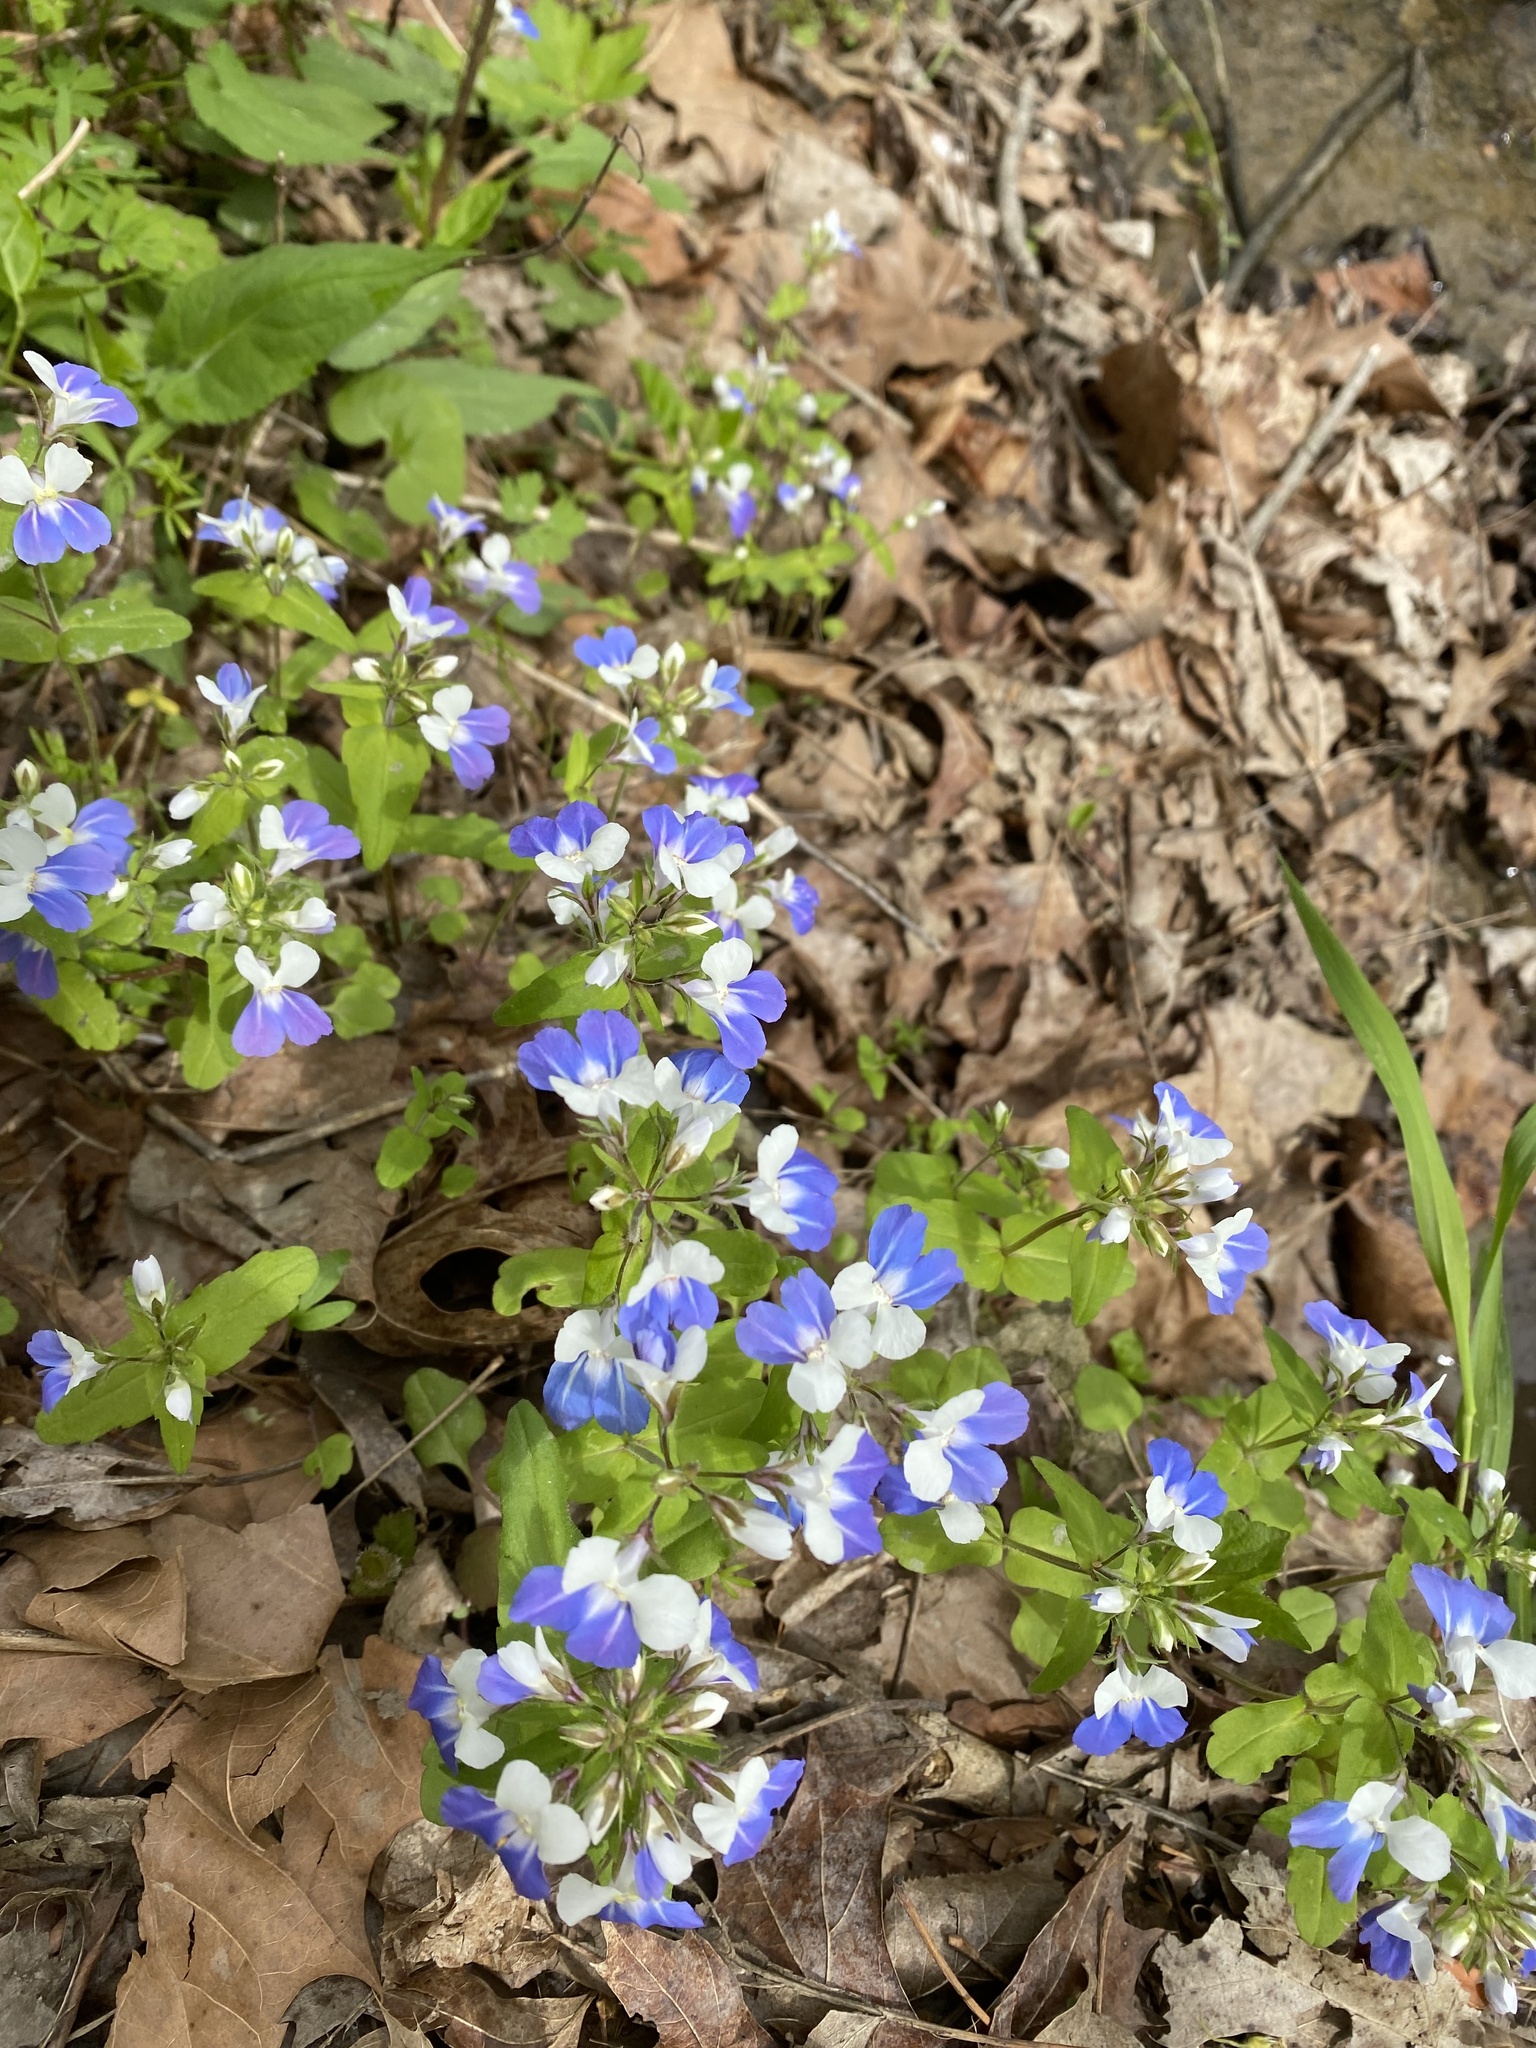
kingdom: Plantae
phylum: Tracheophyta
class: Magnoliopsida
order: Lamiales
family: Plantaginaceae
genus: Collinsia
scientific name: Collinsia verna
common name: Broad-leaved collinsia
